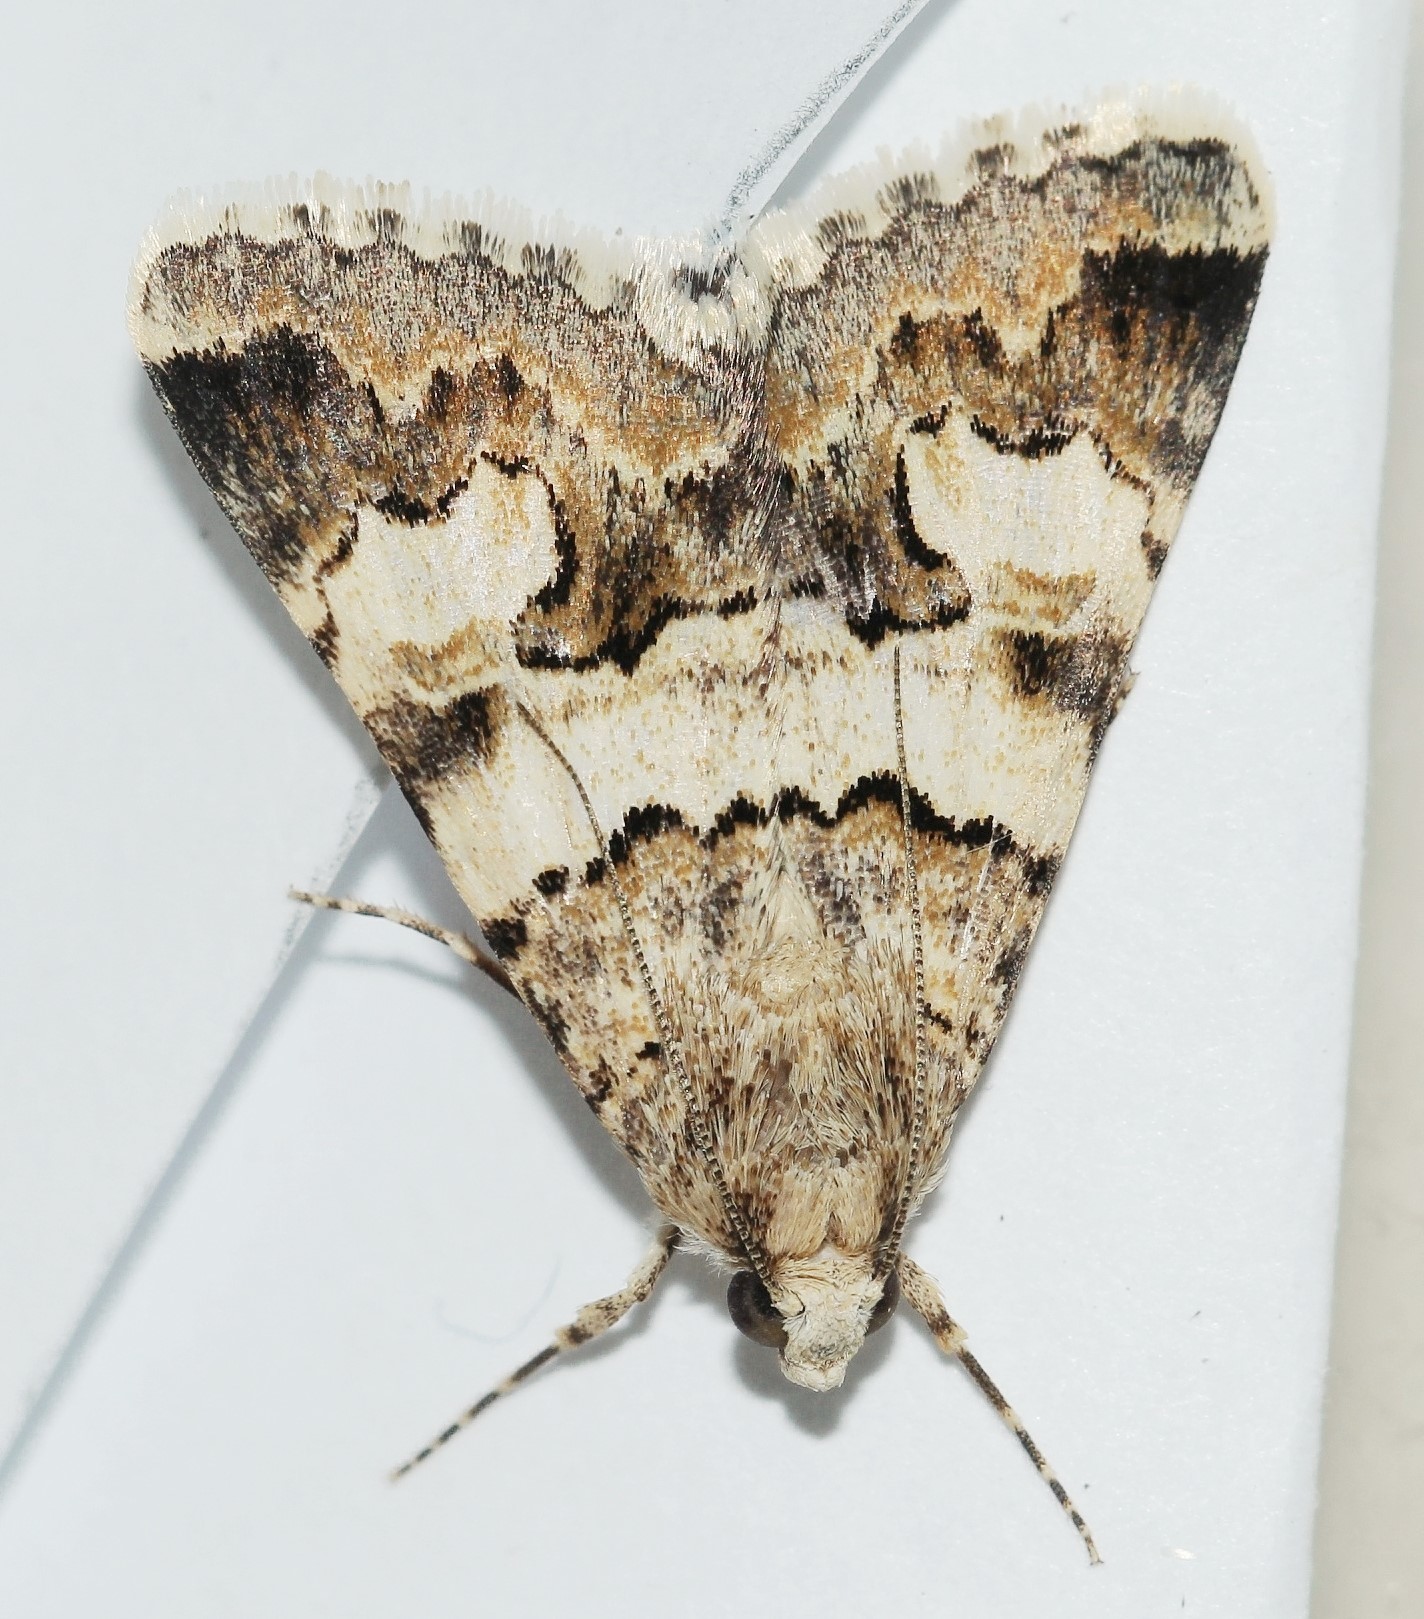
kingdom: Animalia
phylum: Arthropoda
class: Insecta
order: Lepidoptera
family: Erebidae
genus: Drasteria
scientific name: Drasteria saisani
